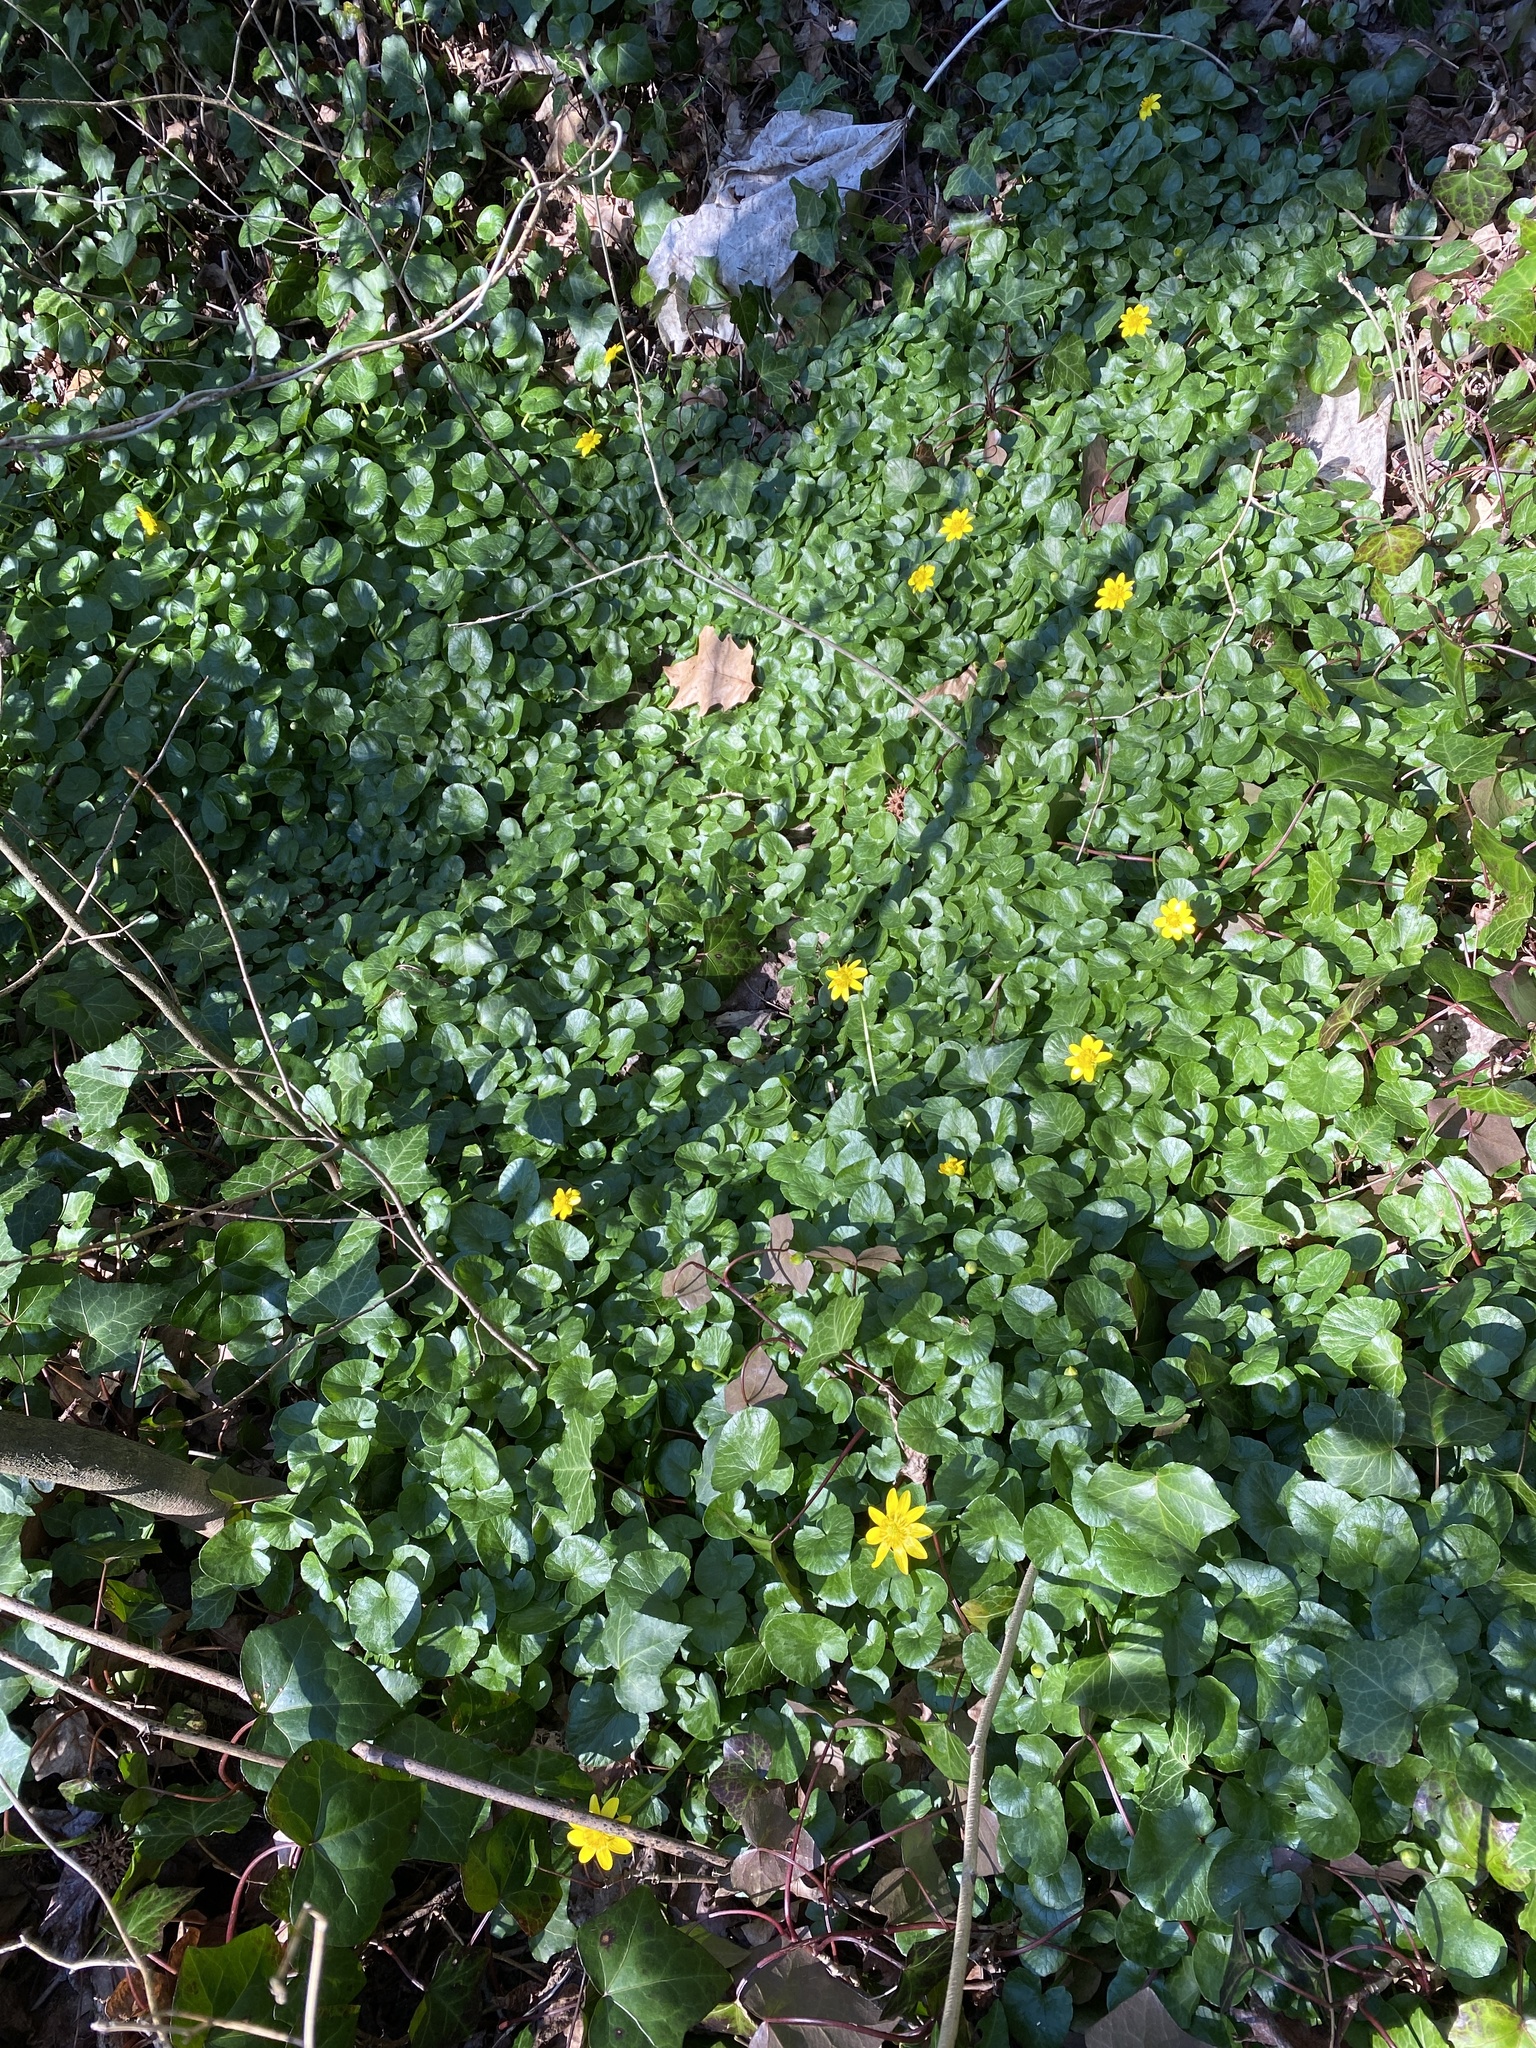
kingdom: Plantae
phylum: Tracheophyta
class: Magnoliopsida
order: Ranunculales
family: Ranunculaceae
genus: Ficaria
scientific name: Ficaria verna
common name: Lesser celandine
